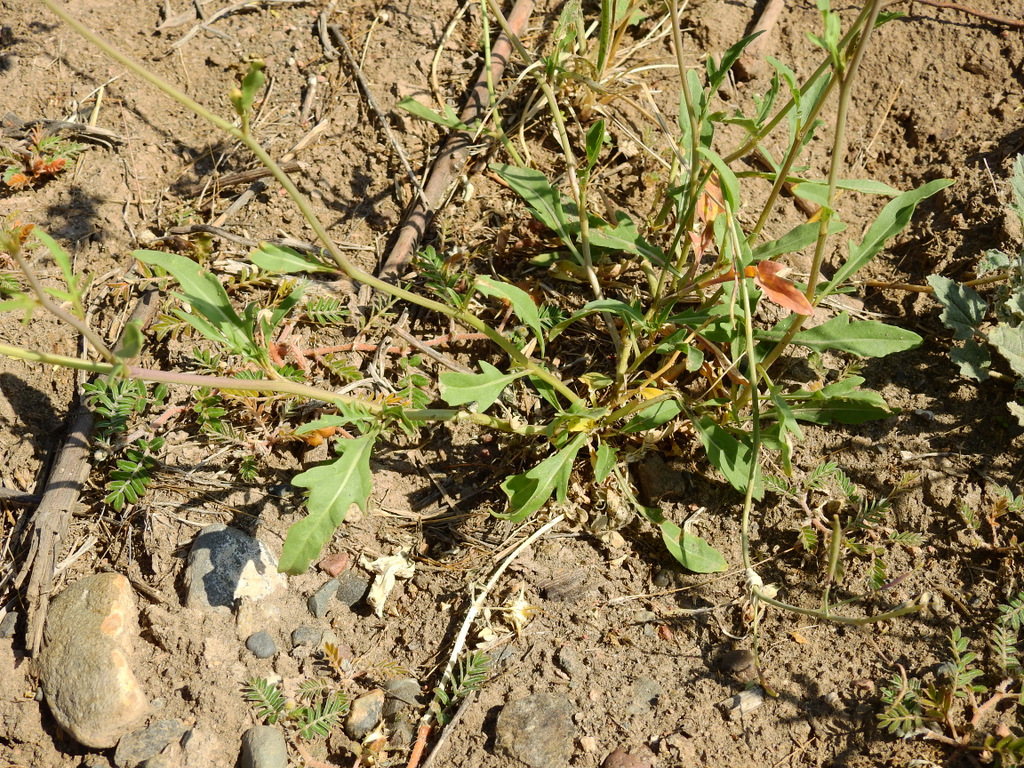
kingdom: Plantae
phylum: Tracheophyta
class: Magnoliopsida
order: Brassicales
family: Brassicaceae
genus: Diplotaxis
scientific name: Diplotaxis tenuifolia
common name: Perennial wall-rocket
